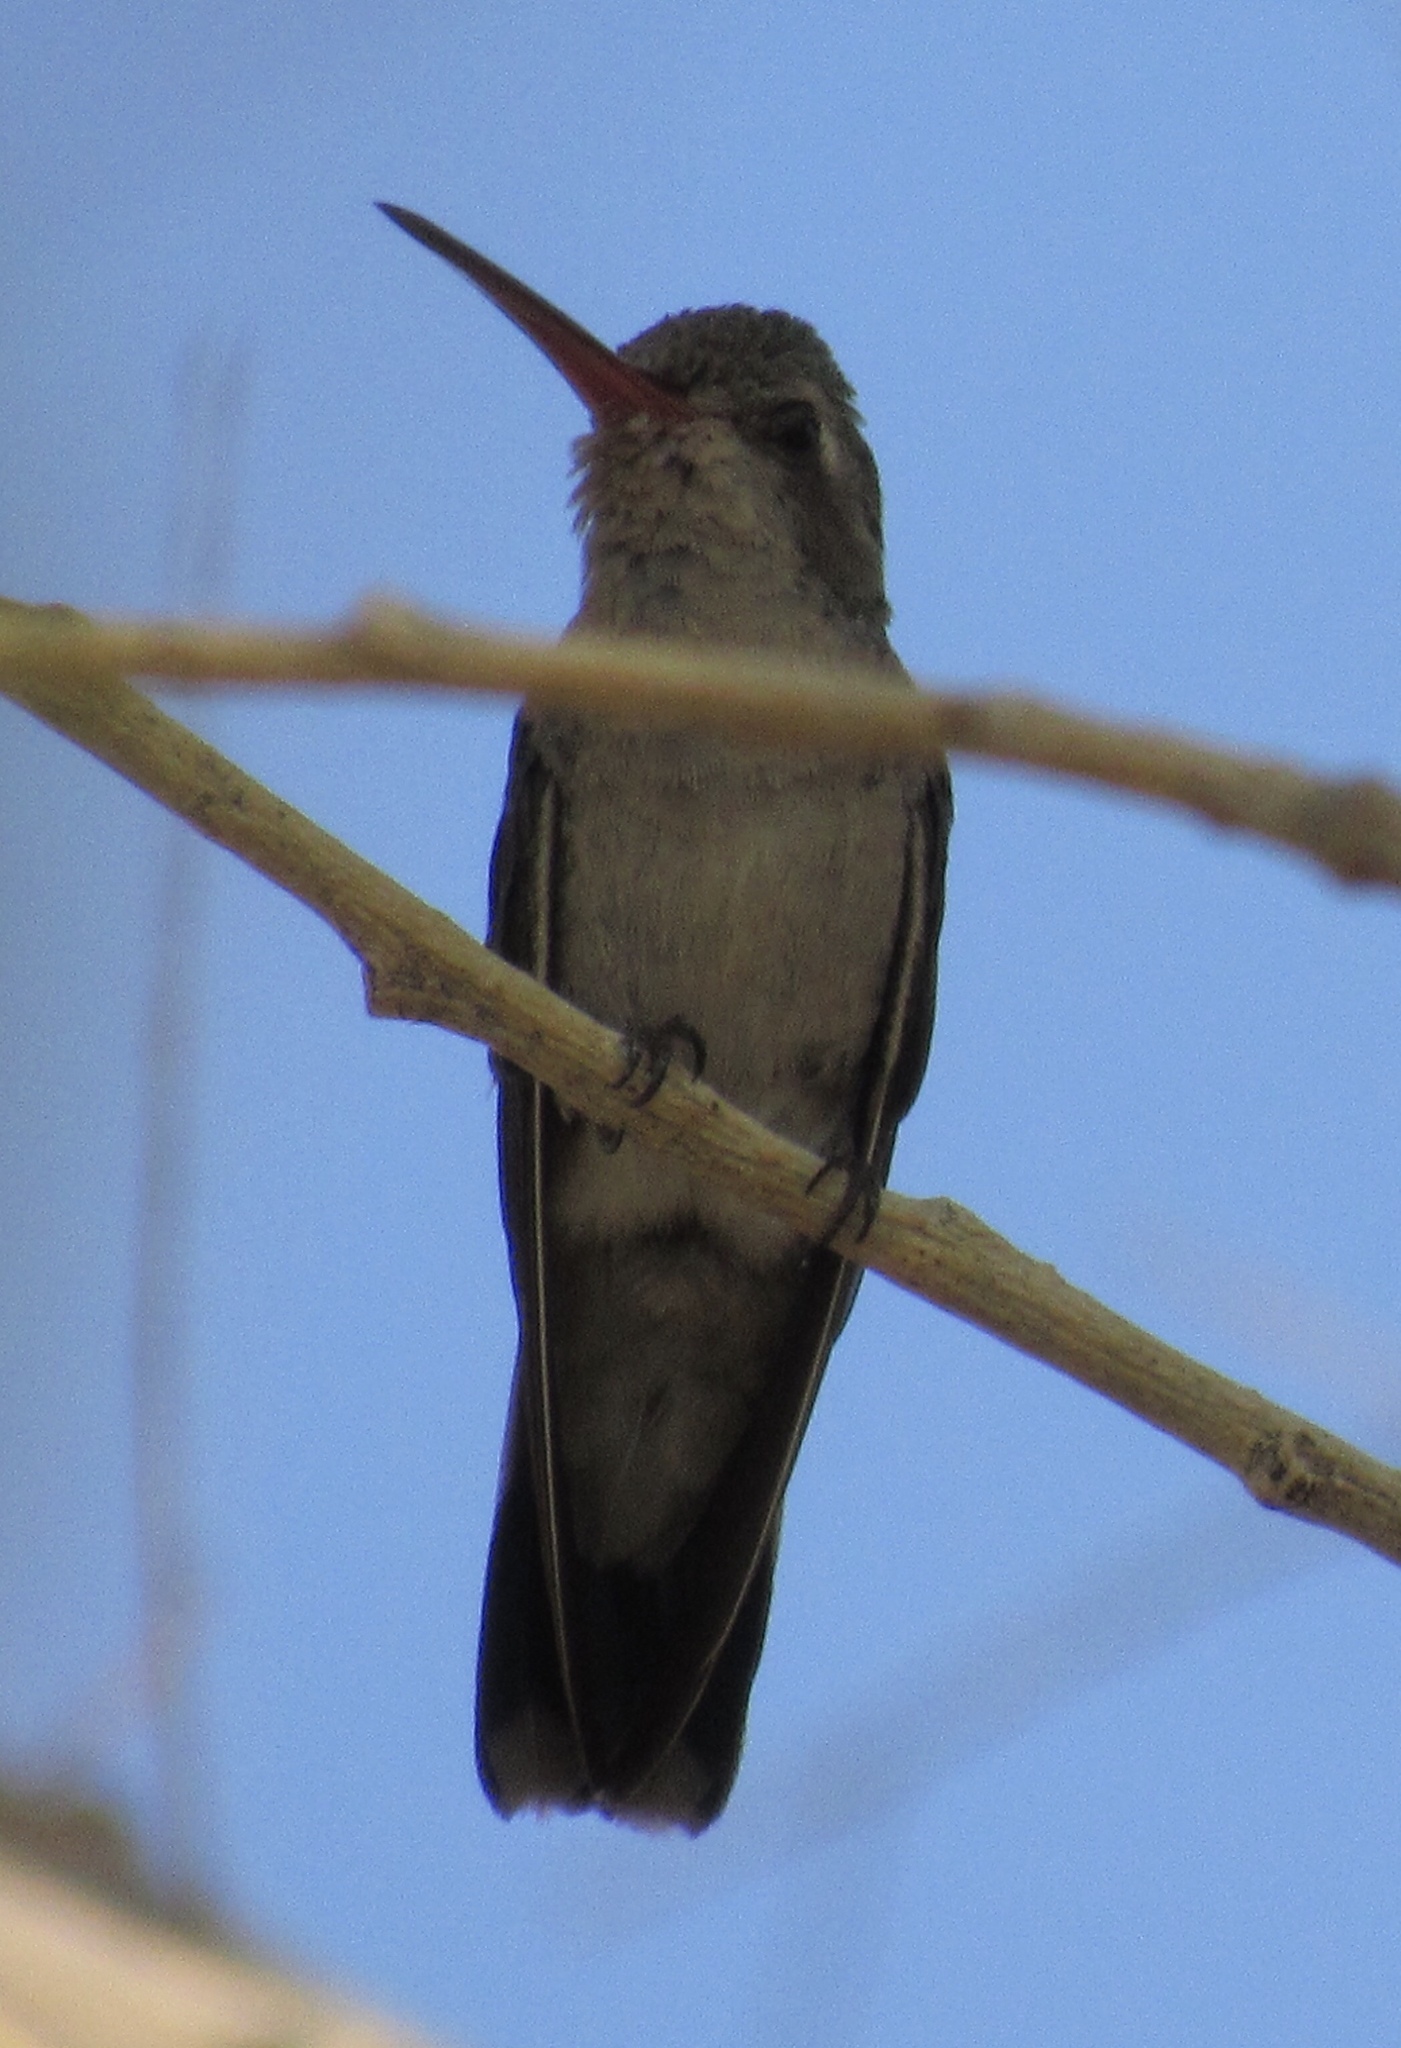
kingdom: Animalia
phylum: Chordata
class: Aves
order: Apodiformes
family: Trochilidae
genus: Cynanthus
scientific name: Cynanthus latirostris
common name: Broad-billed hummingbird
